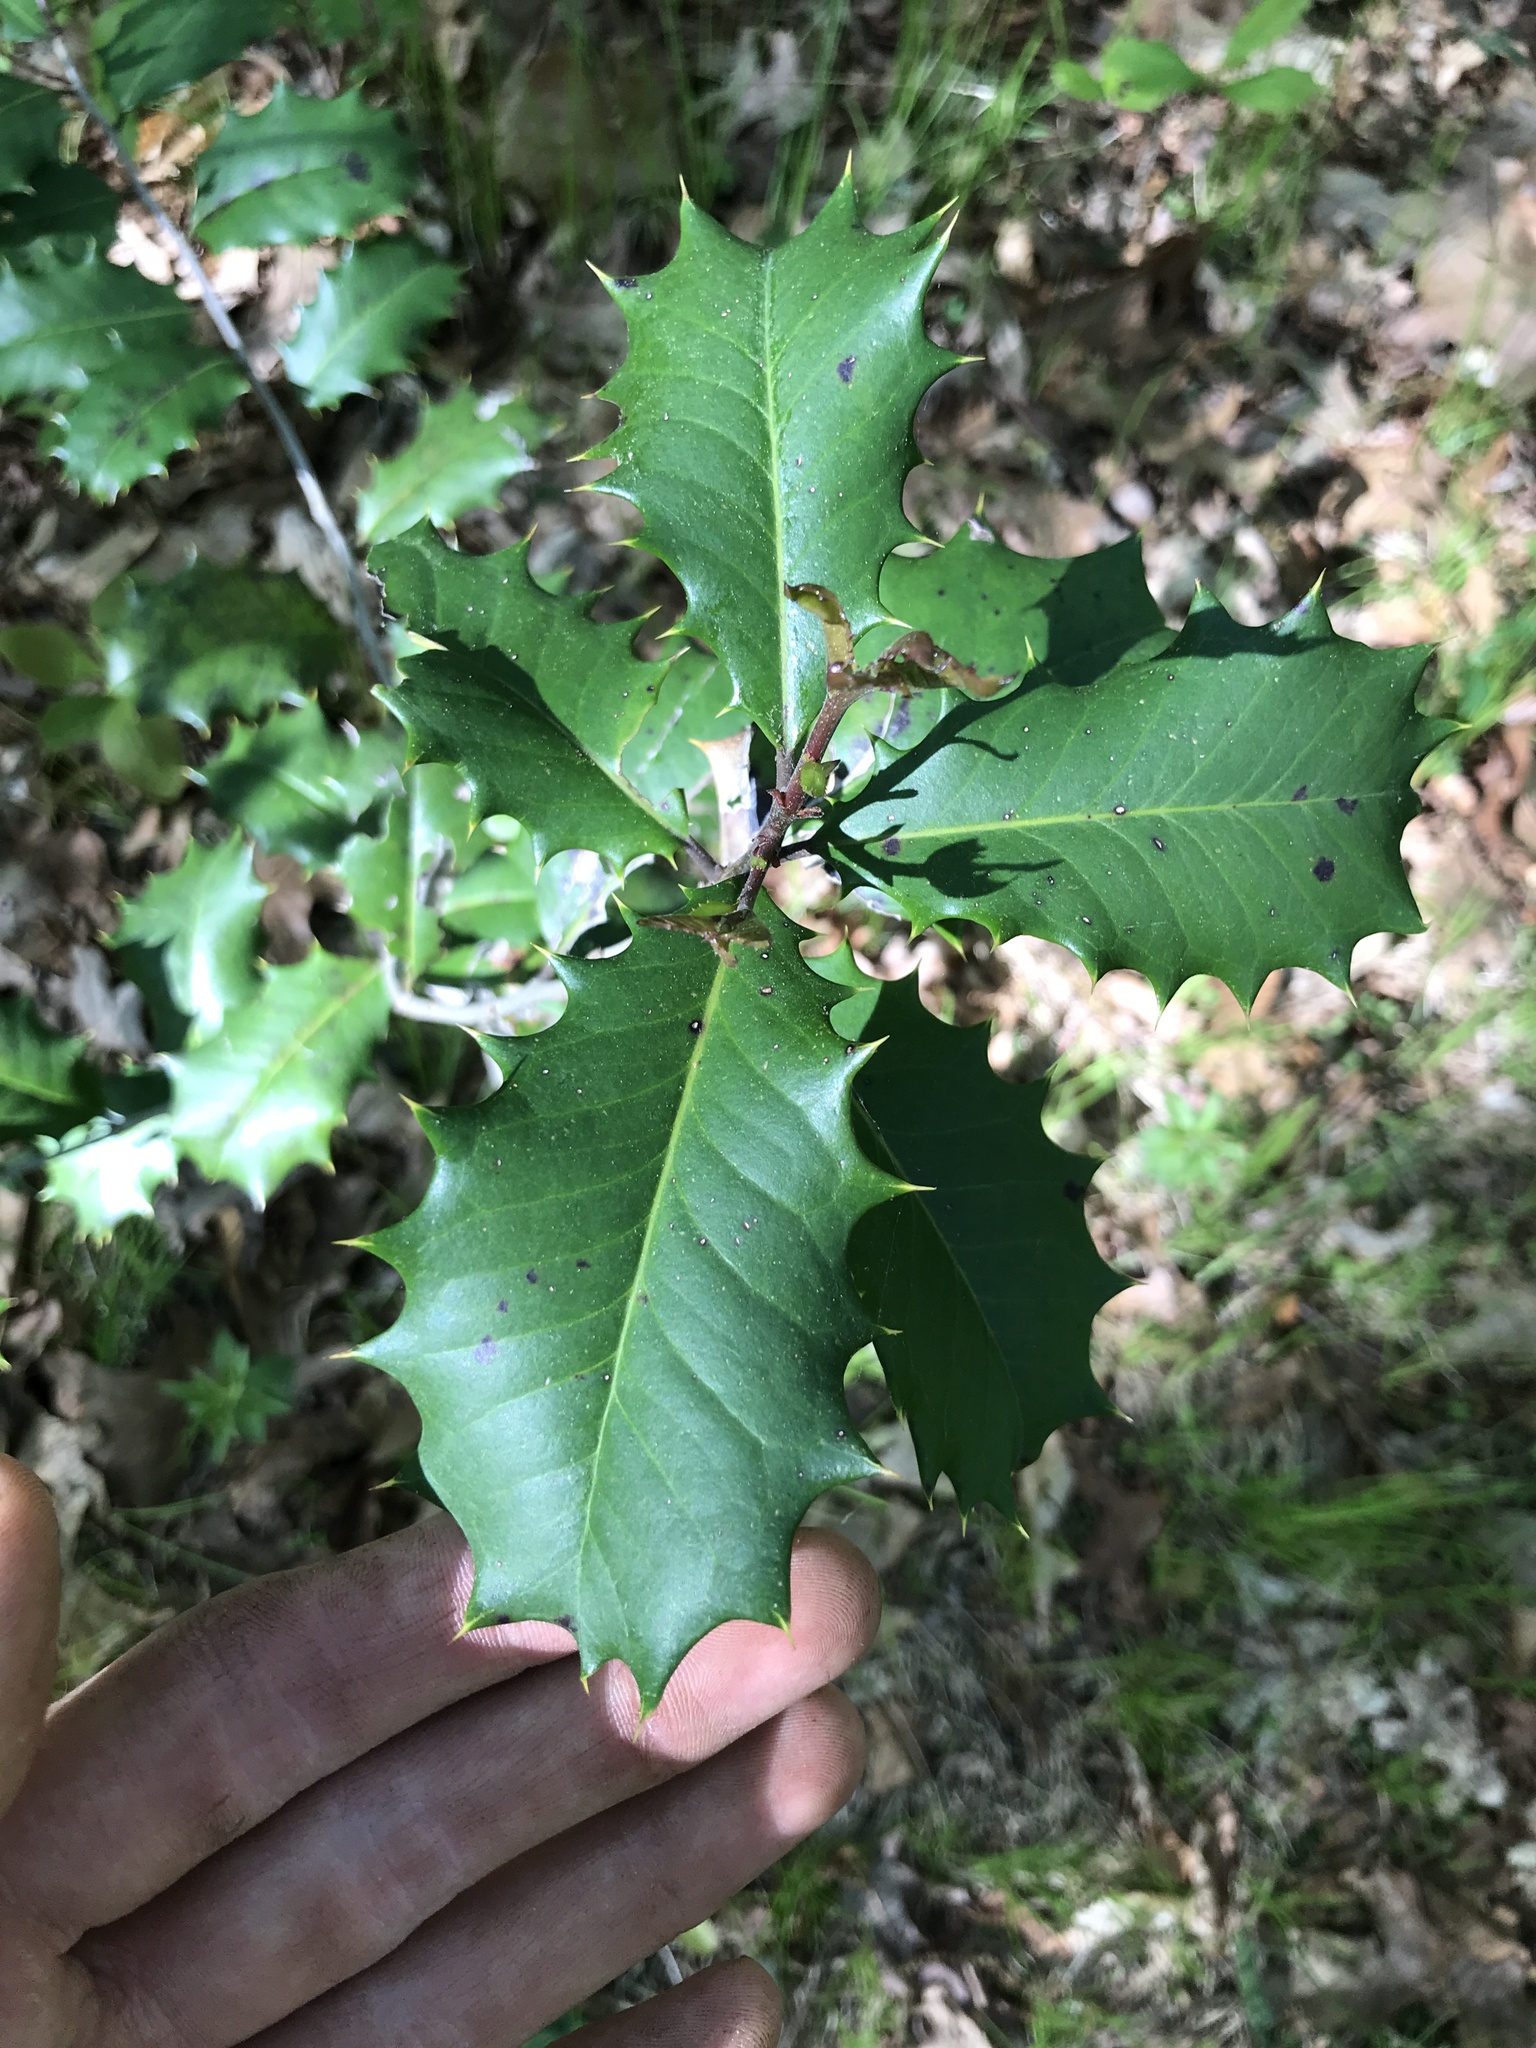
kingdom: Plantae
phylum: Tracheophyta
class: Magnoliopsida
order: Aquifoliales
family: Aquifoliaceae
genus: Ilex
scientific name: Ilex opaca
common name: American holly
